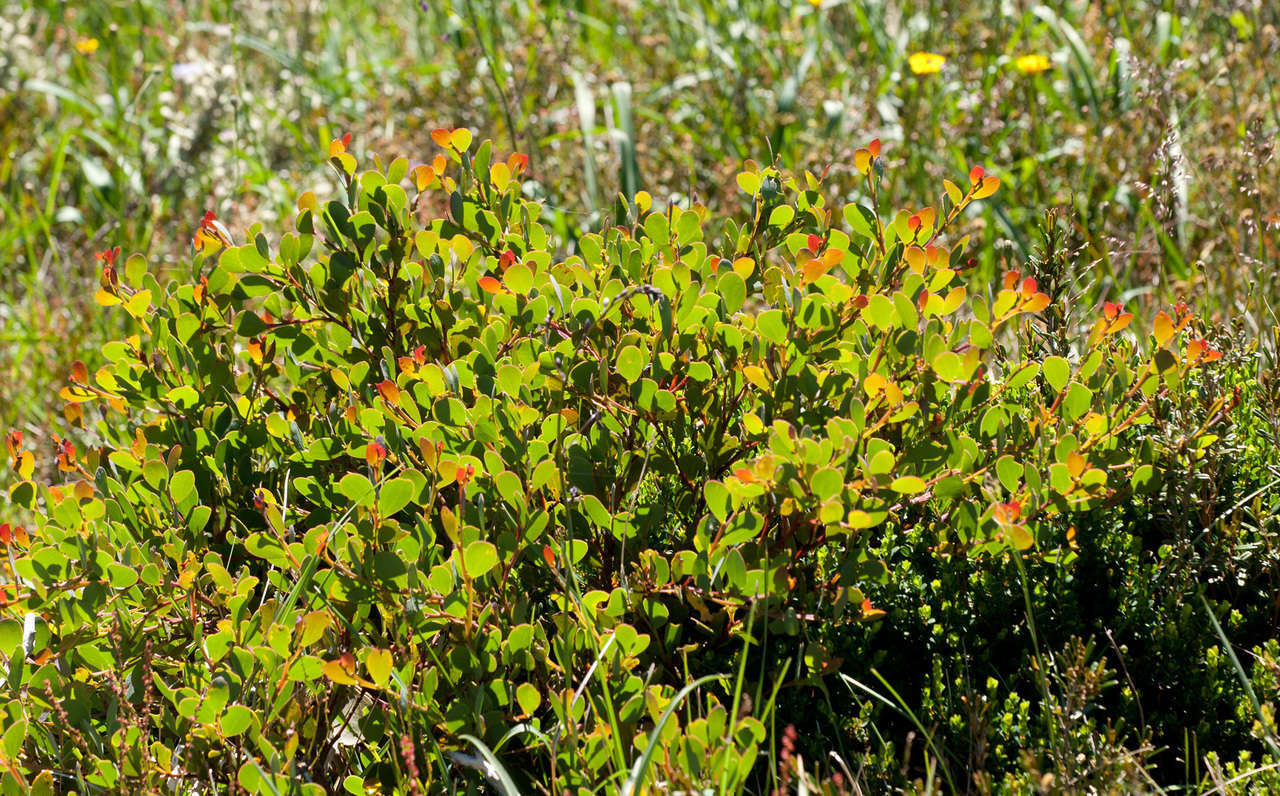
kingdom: Plantae
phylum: Tracheophyta
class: Magnoliopsida
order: Fabales
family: Fabaceae
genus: Acacia
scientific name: Acacia alpina
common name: Alpine wattle
